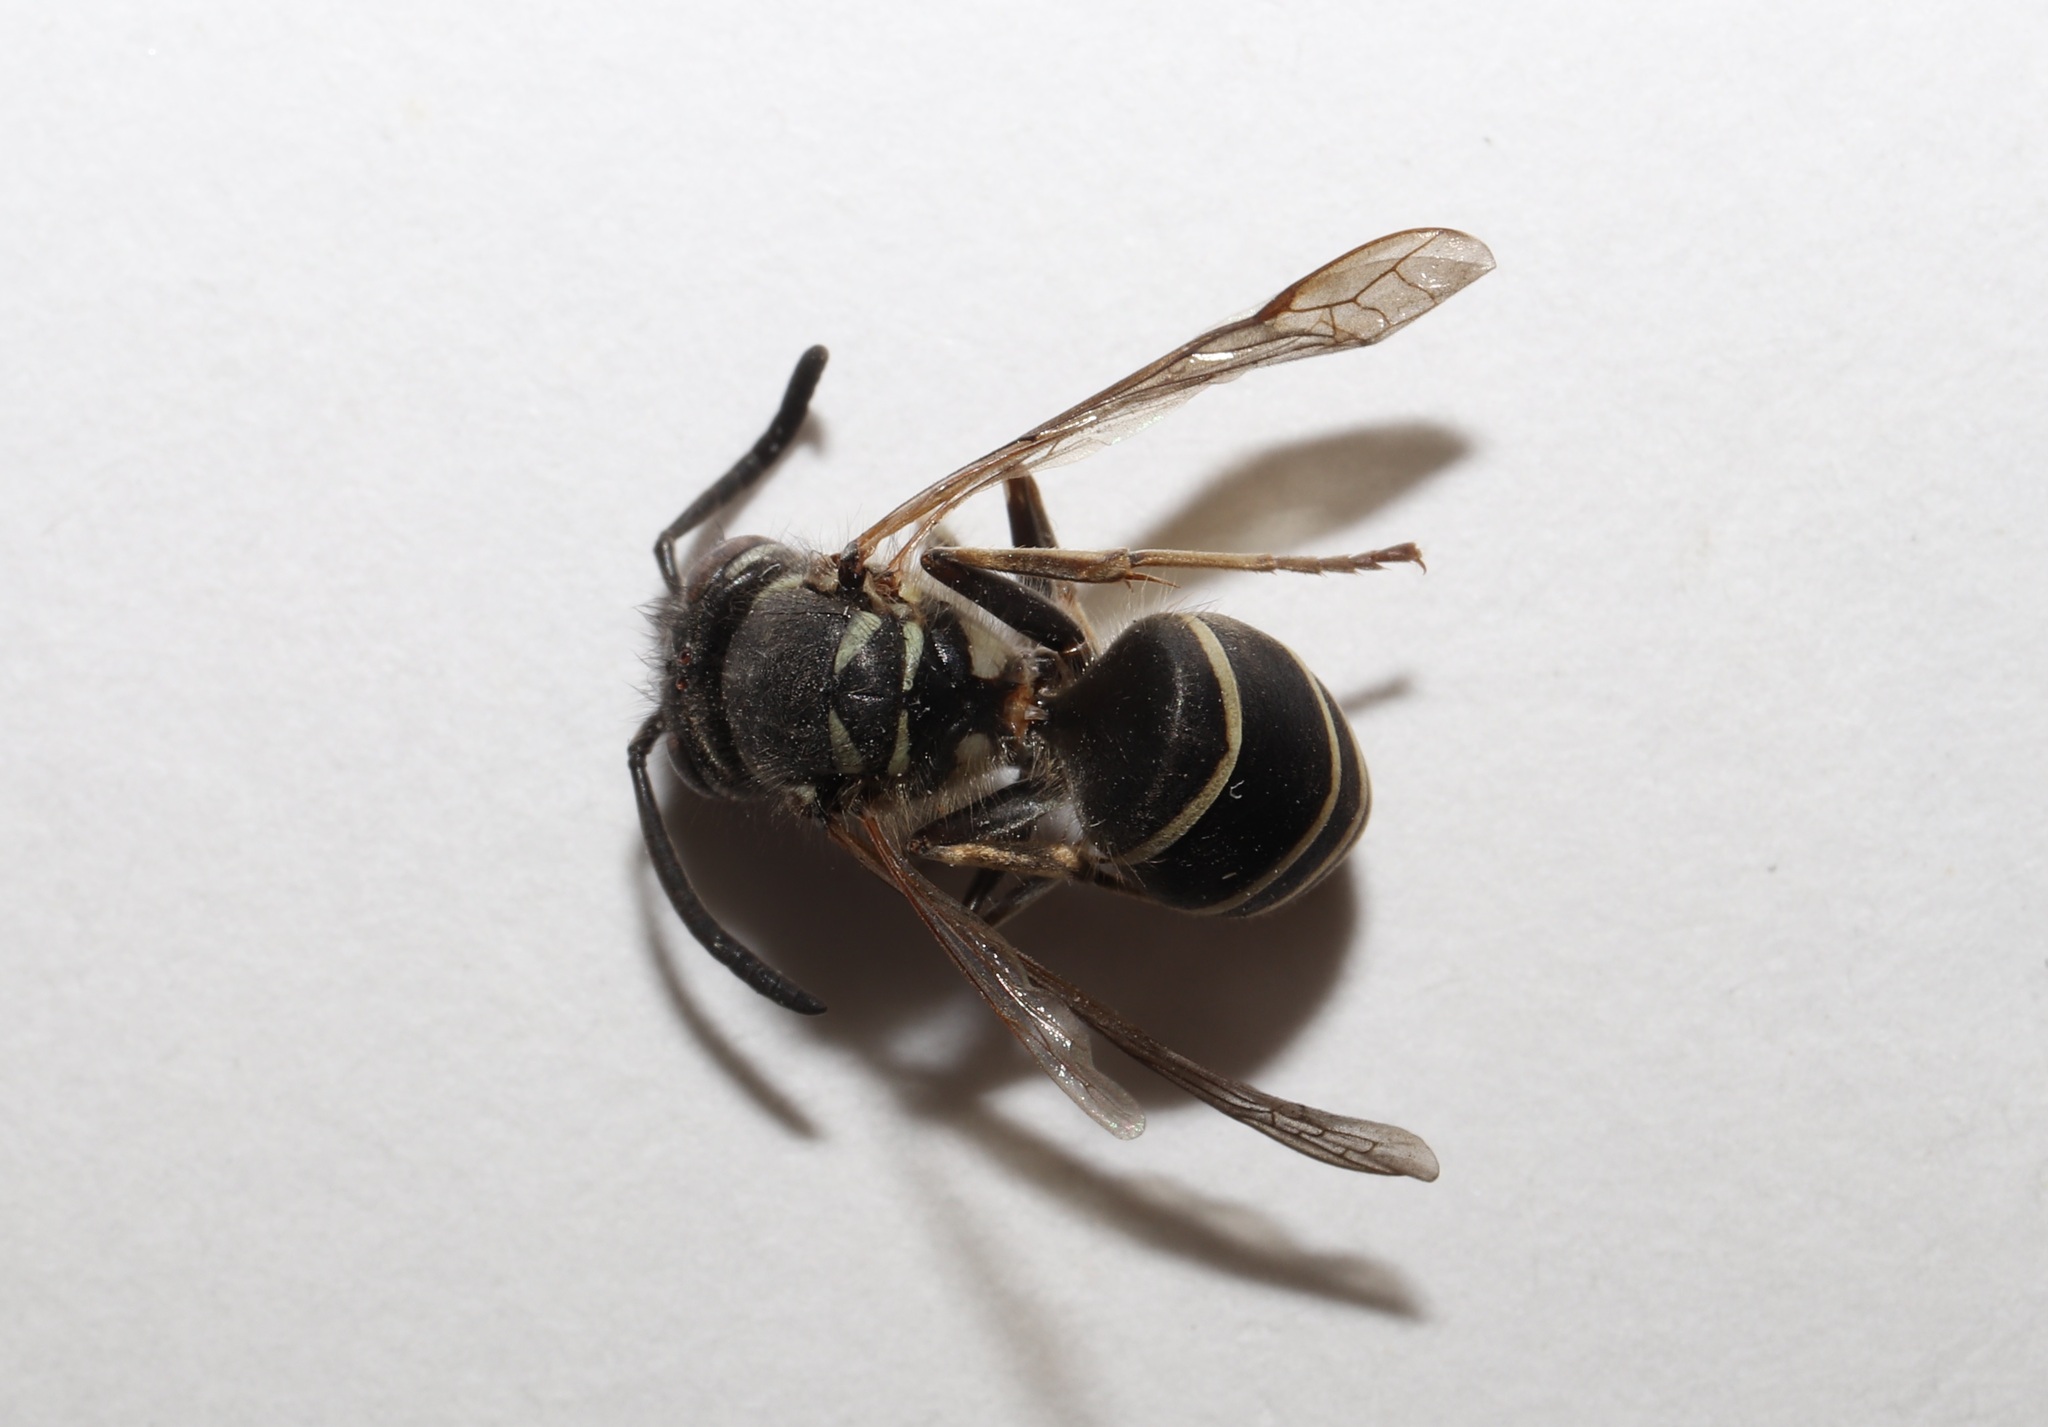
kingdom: Animalia
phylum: Arthropoda
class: Insecta
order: Hymenoptera
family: Vespidae
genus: Vespula
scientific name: Vespula flaviceps
